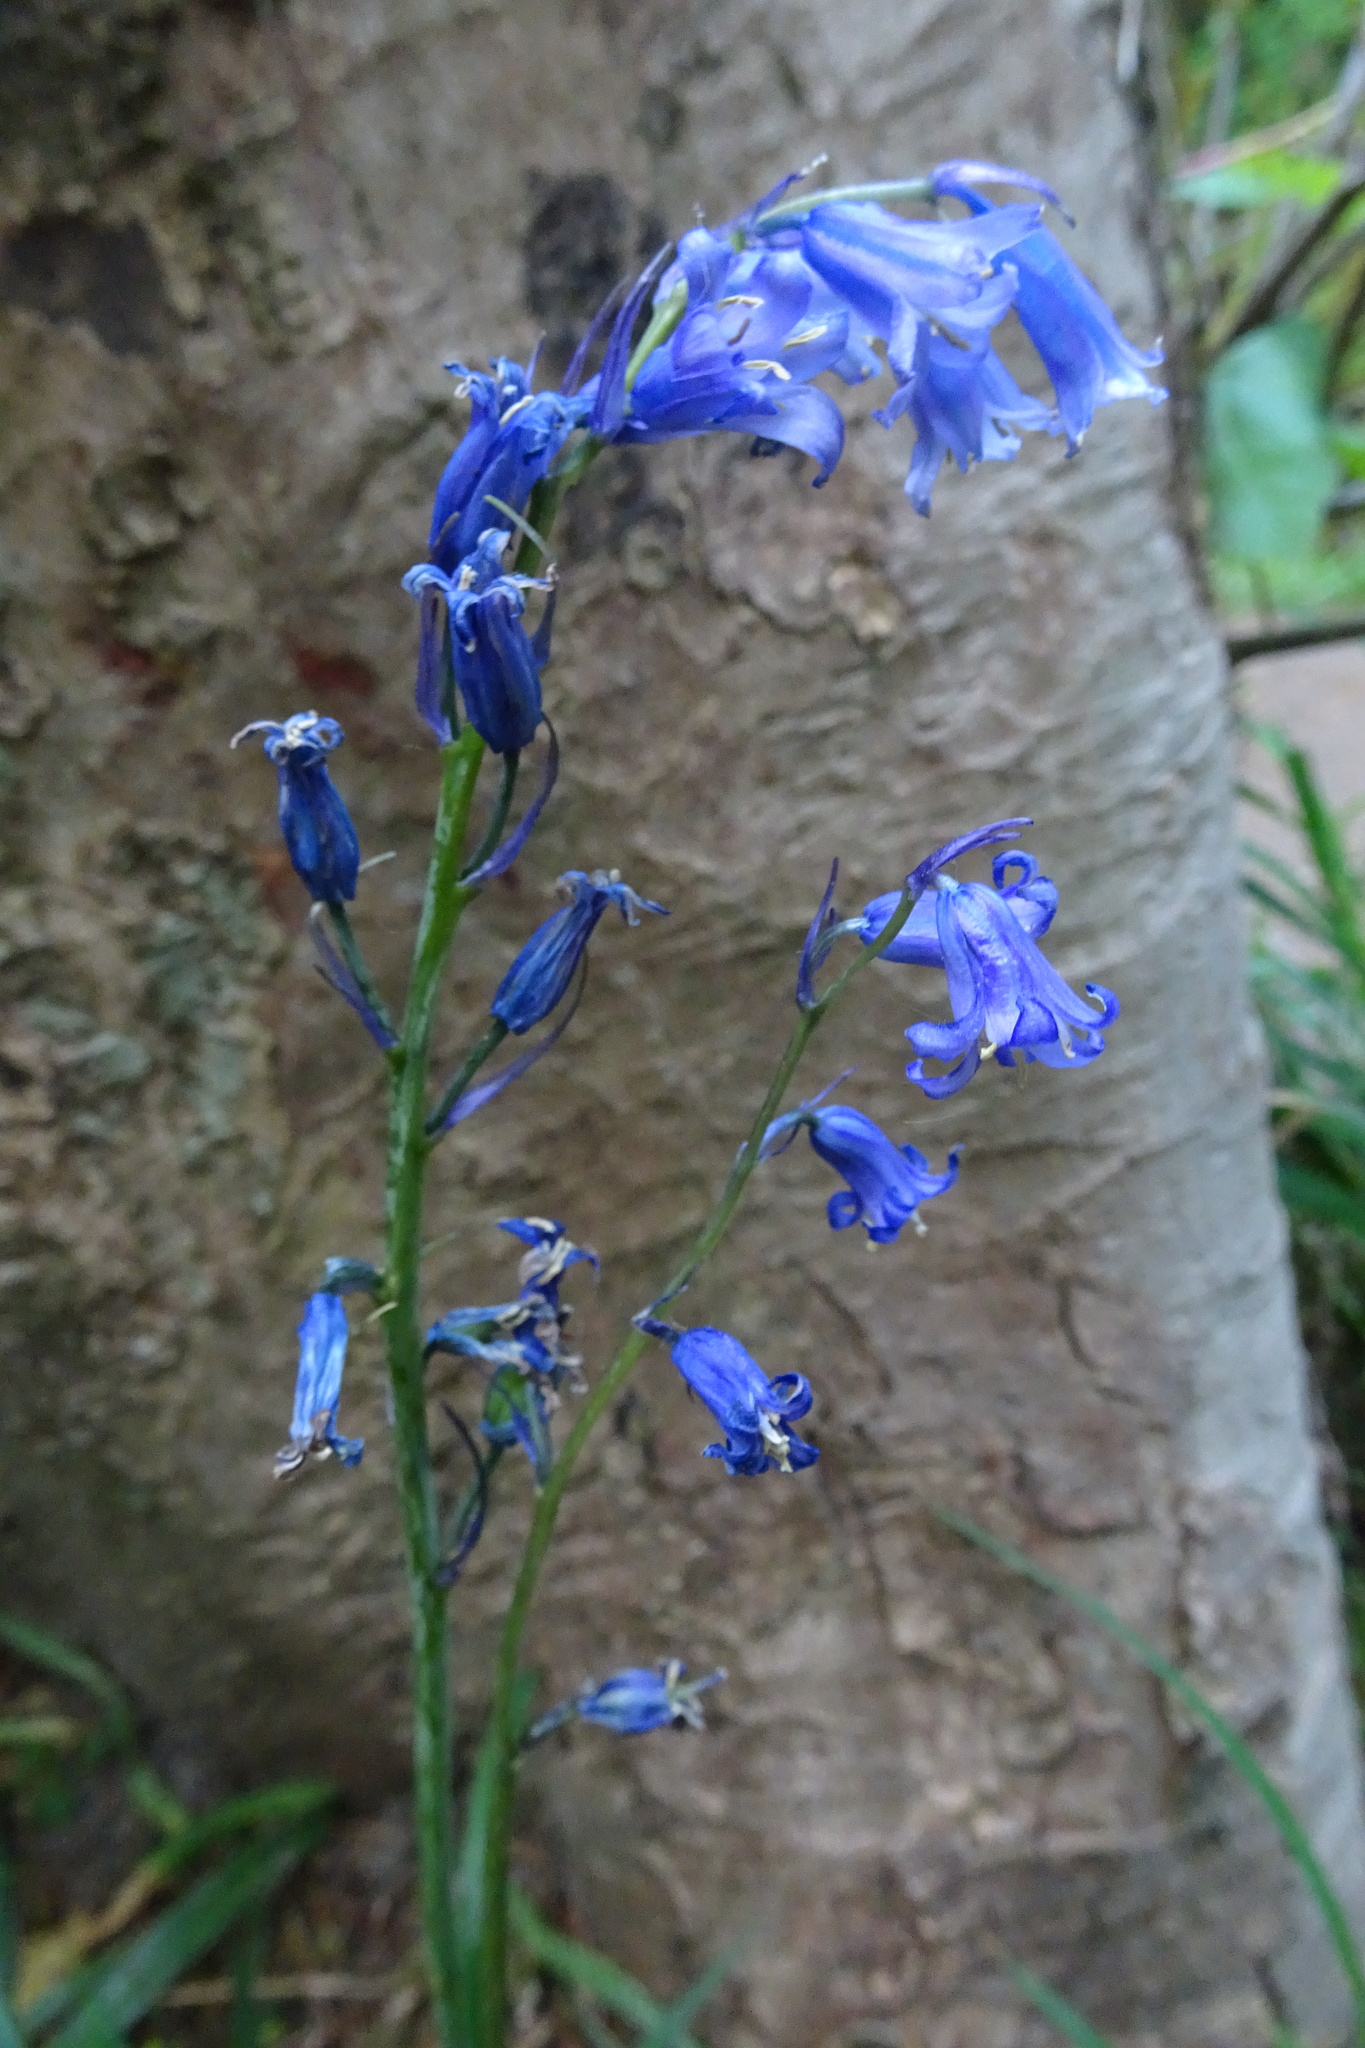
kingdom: Plantae
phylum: Tracheophyta
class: Liliopsida
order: Asparagales
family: Asparagaceae
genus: Hyacinthoides
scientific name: Hyacinthoides non-scripta
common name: Bluebell
